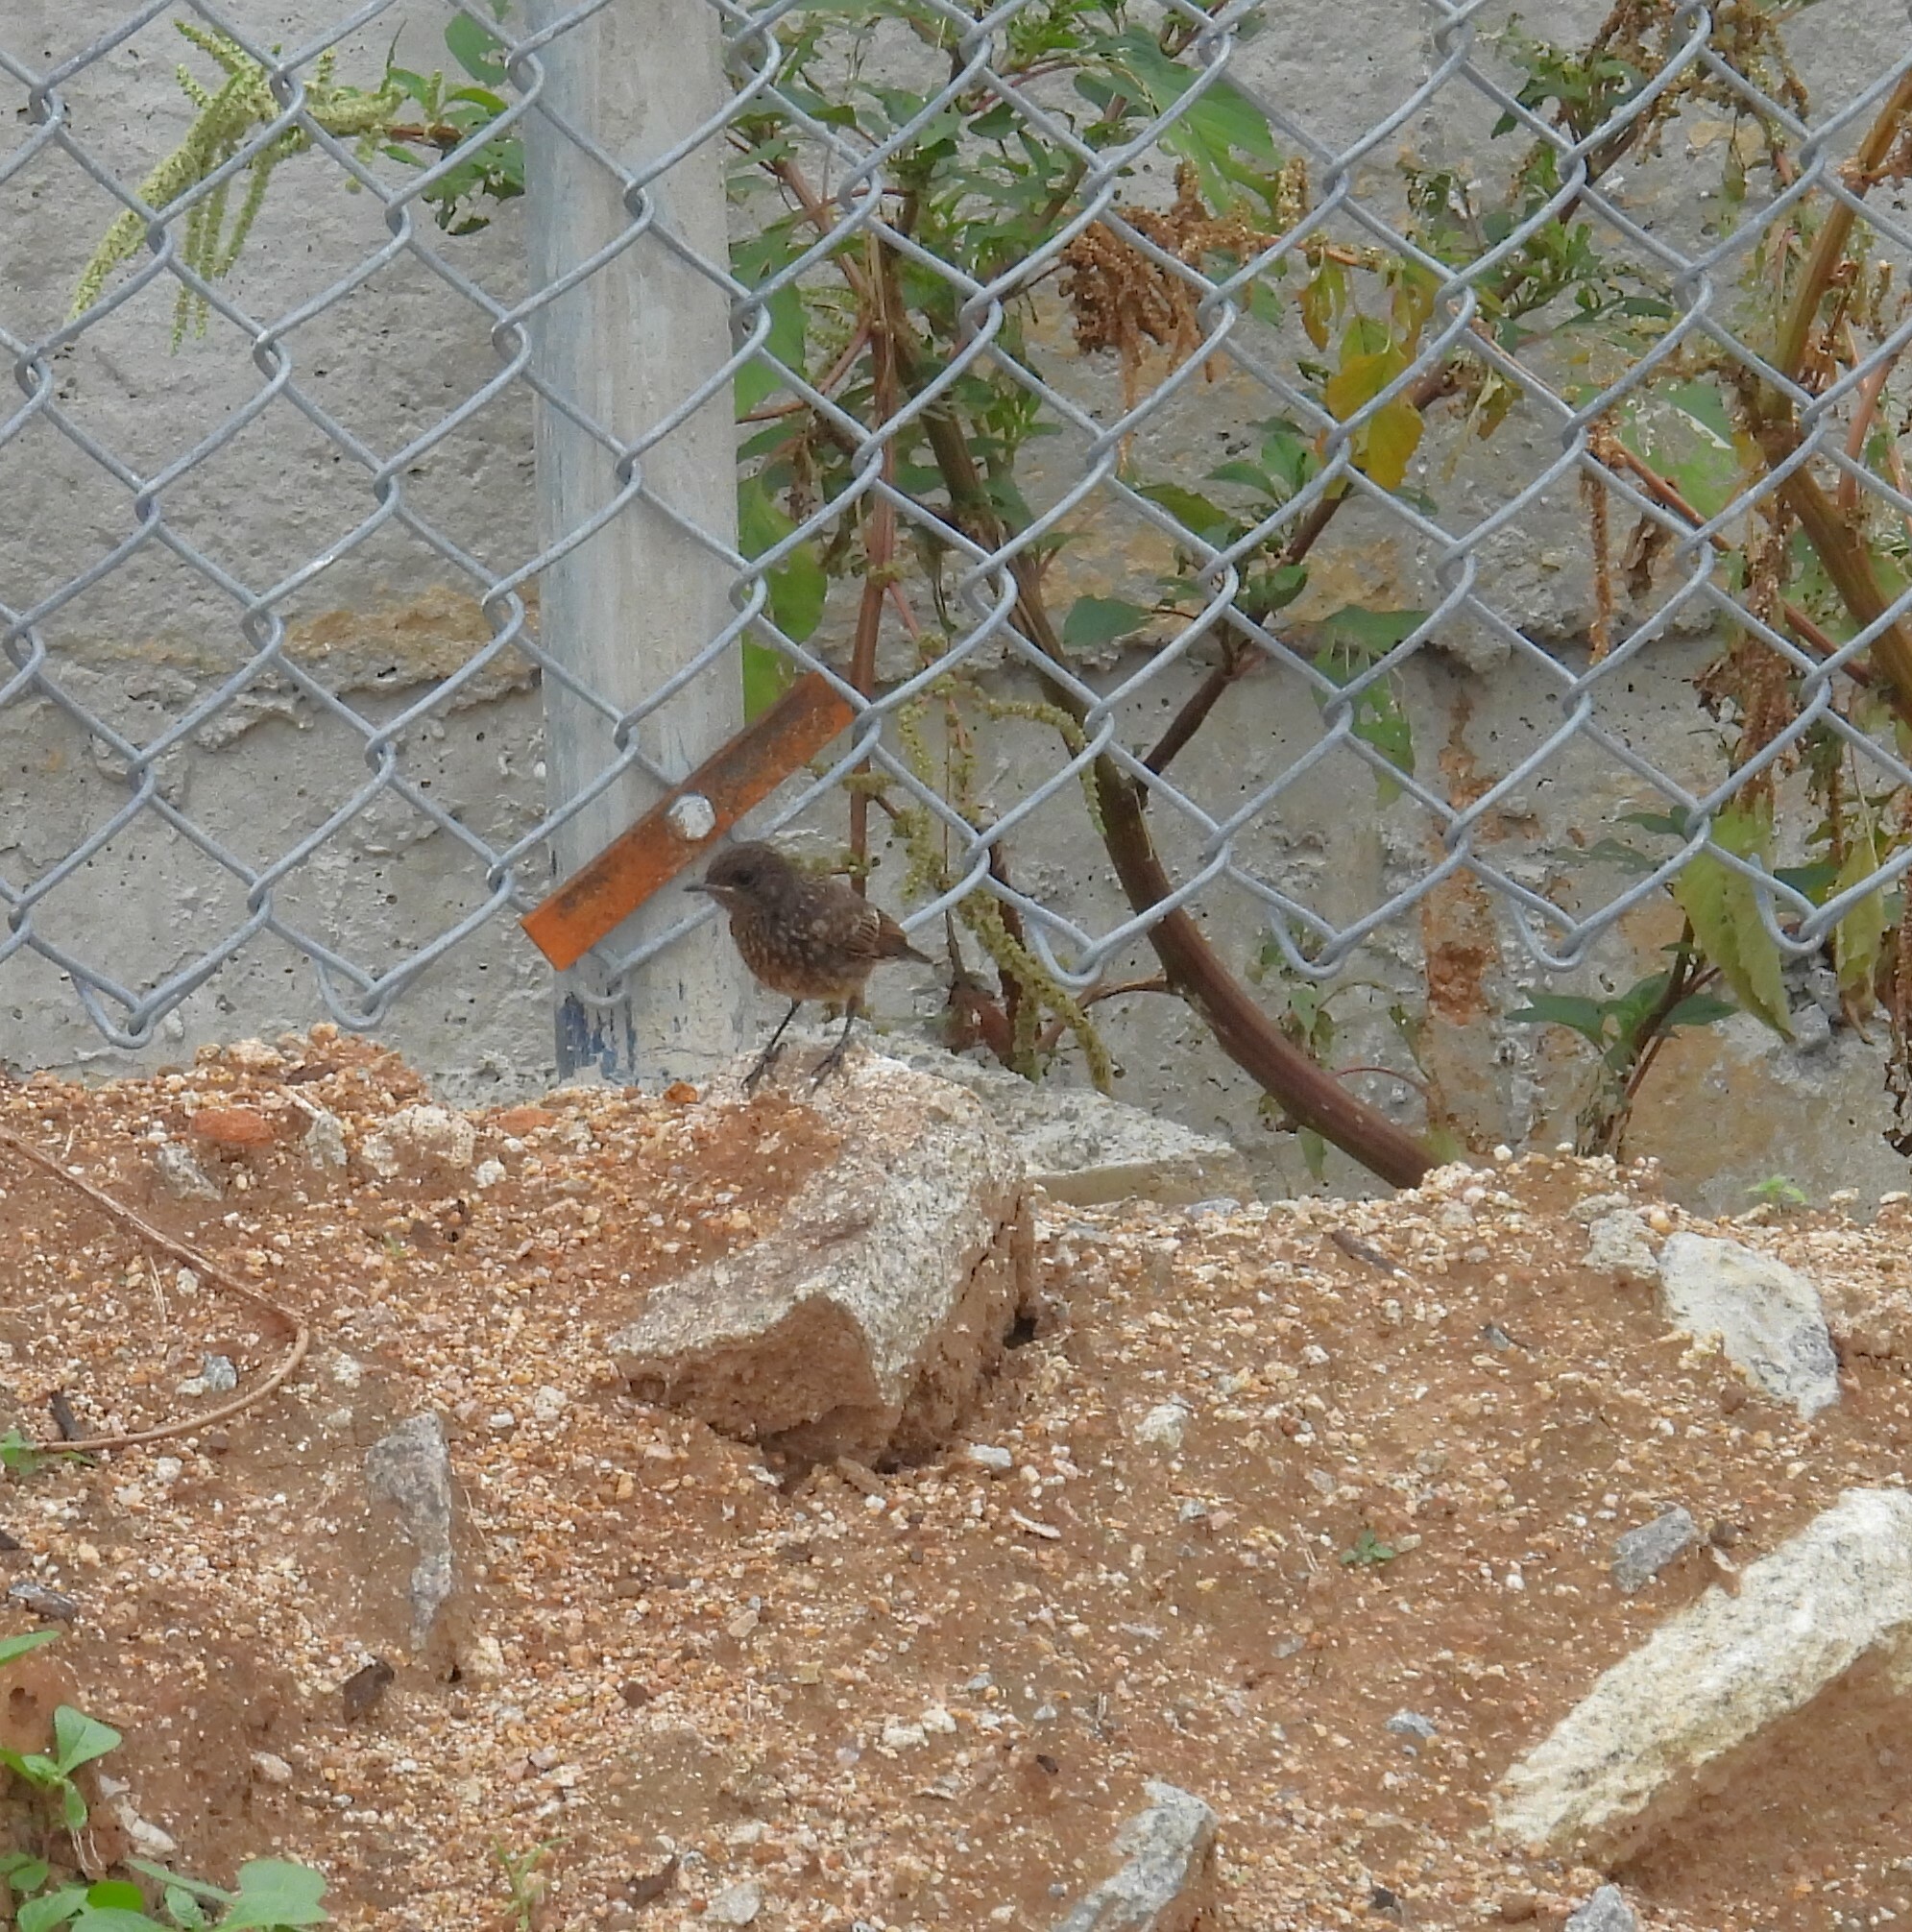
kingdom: Animalia
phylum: Chordata
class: Aves
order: Passeriformes
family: Muscicapidae
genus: Saxicola
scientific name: Saxicola caprata
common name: Pied bush chat
